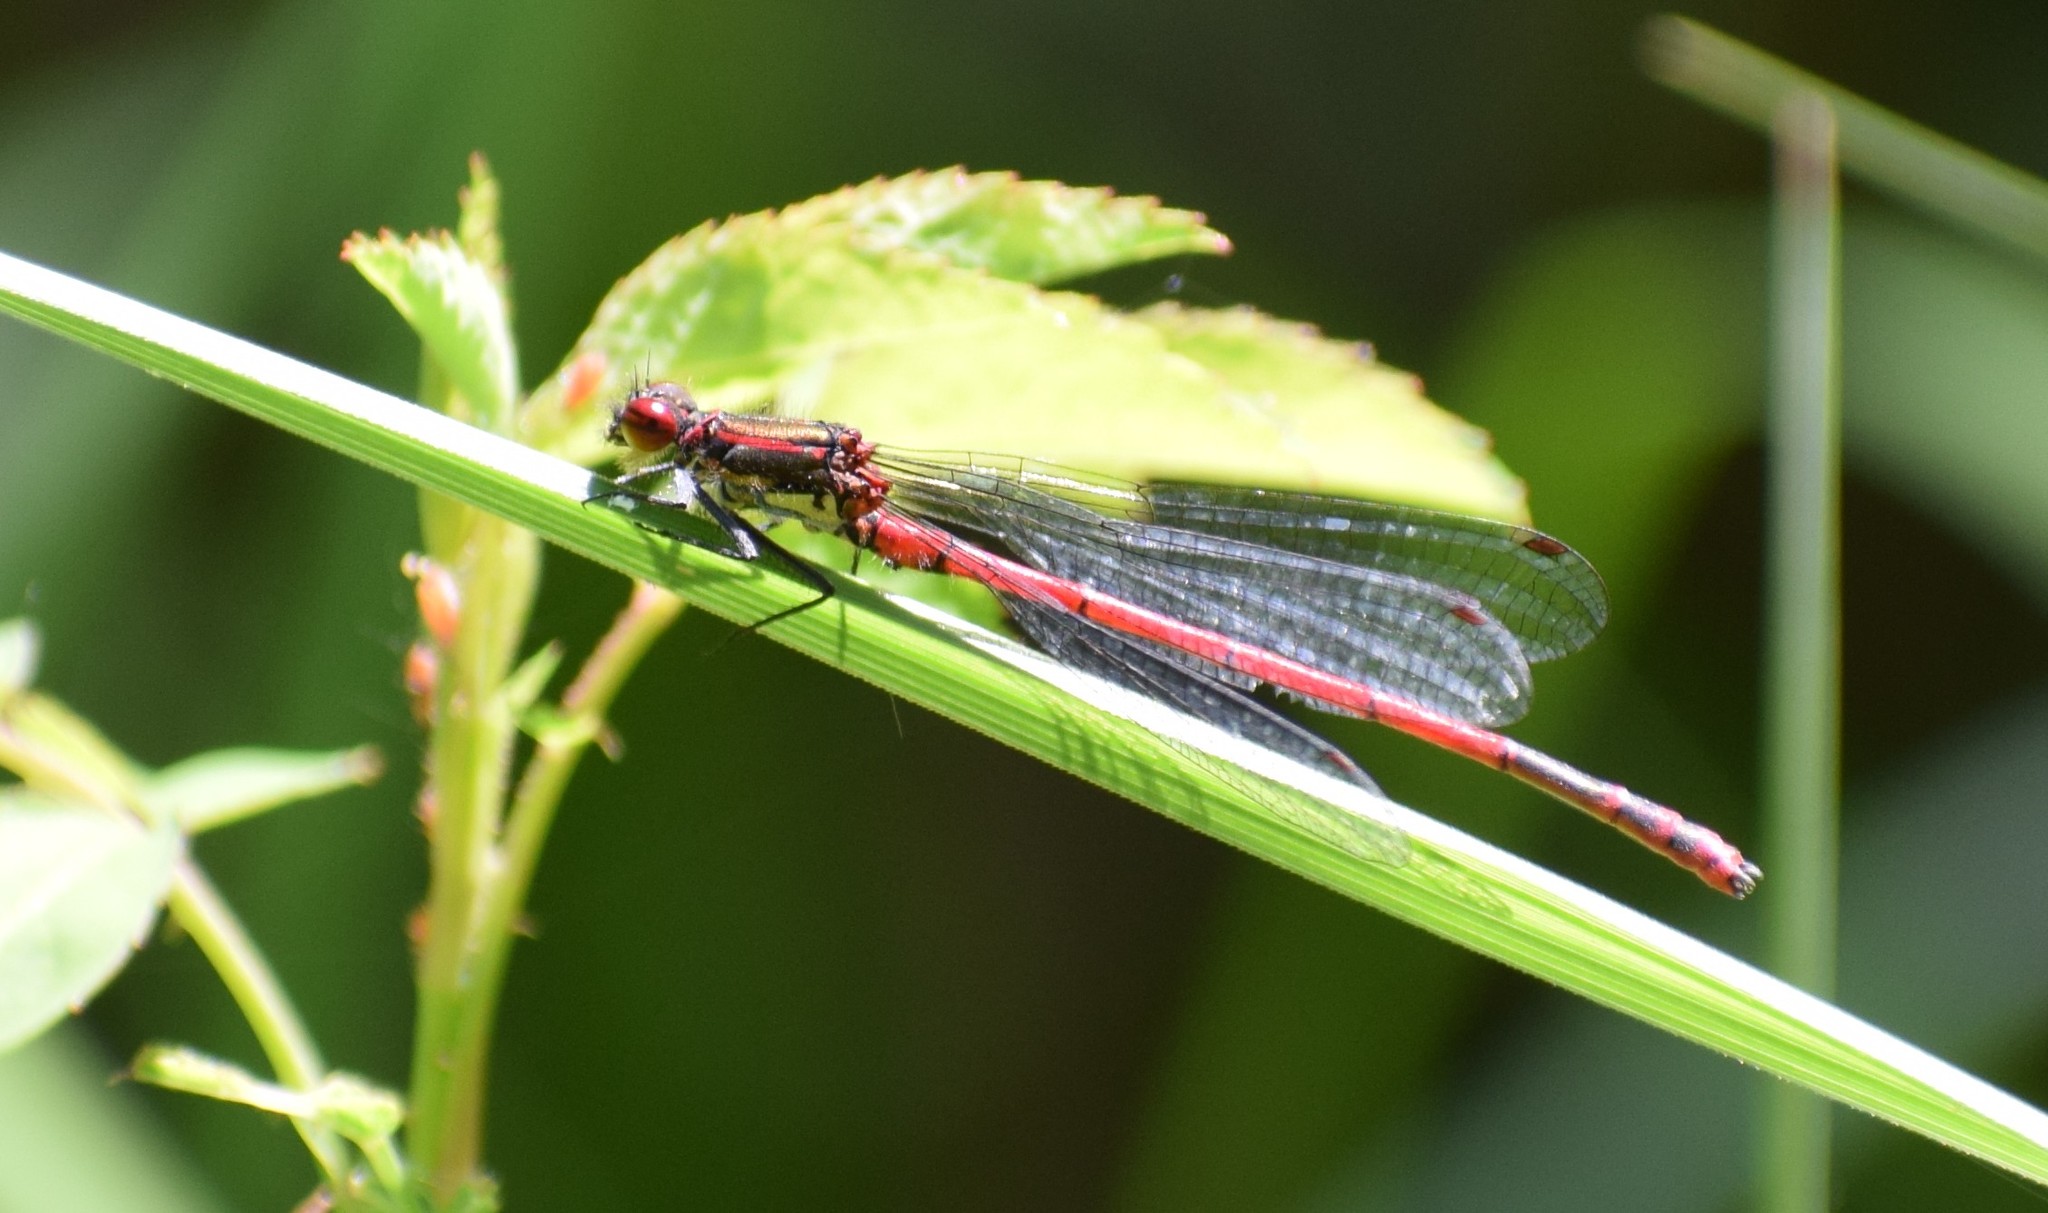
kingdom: Animalia
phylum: Arthropoda
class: Insecta
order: Odonata
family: Coenagrionidae
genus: Pyrrhosoma
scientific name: Pyrrhosoma nymphula
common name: Large red damsel
